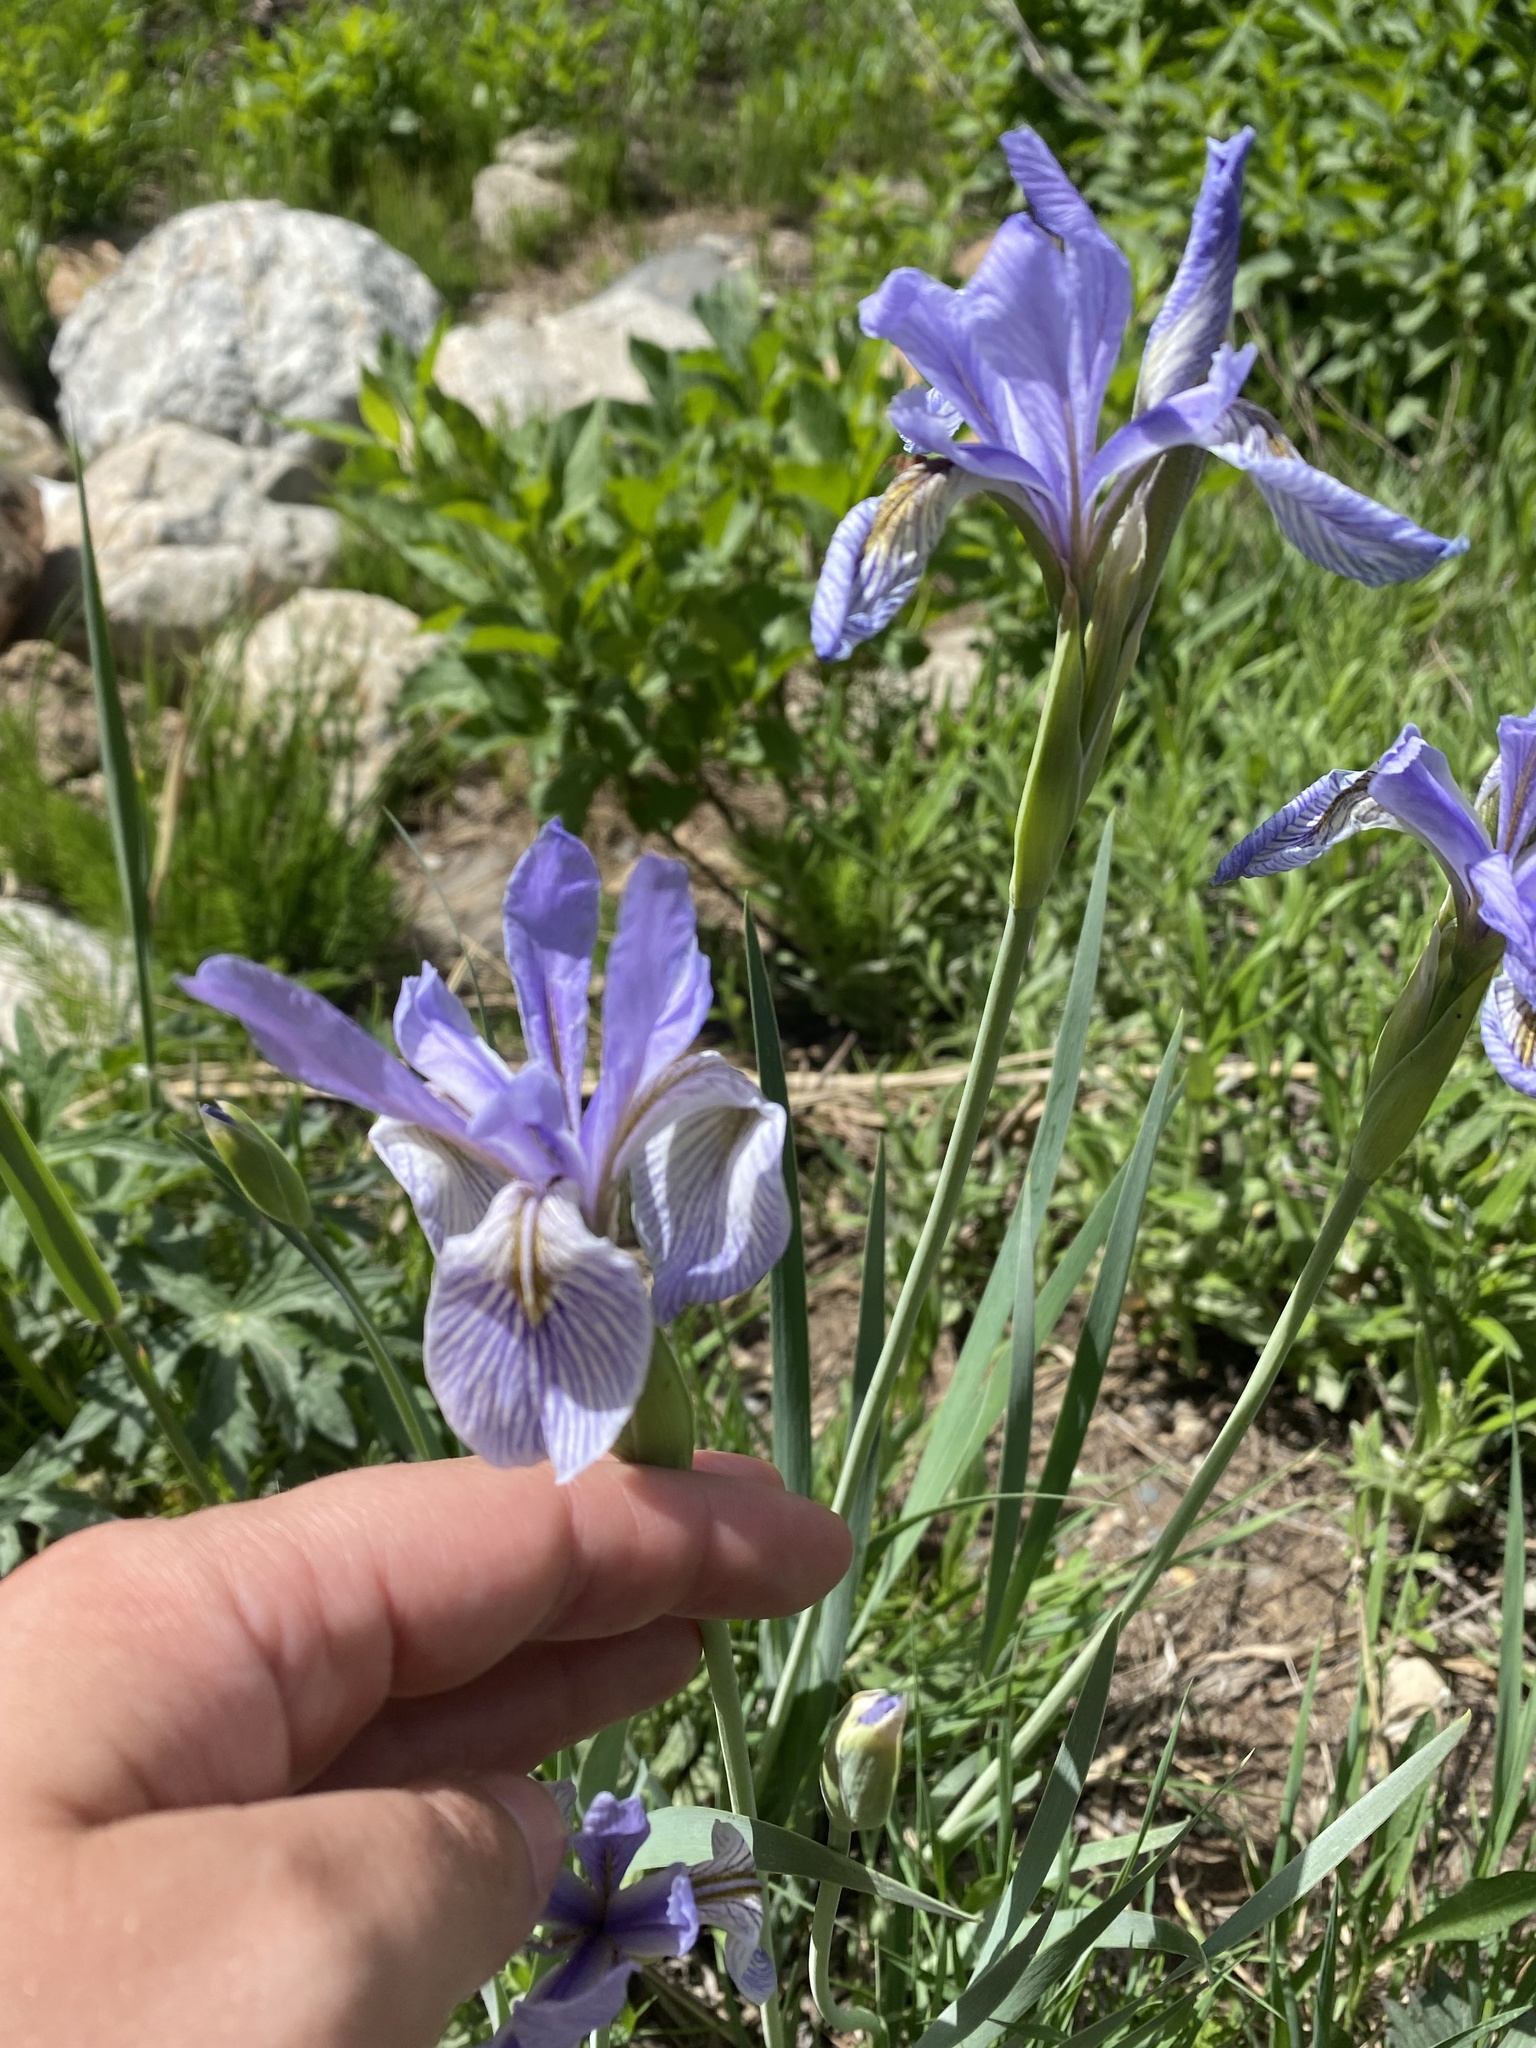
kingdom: Plantae
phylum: Tracheophyta
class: Liliopsida
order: Asparagales
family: Iridaceae
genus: Iris
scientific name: Iris missouriensis
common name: Rocky mountain iris
